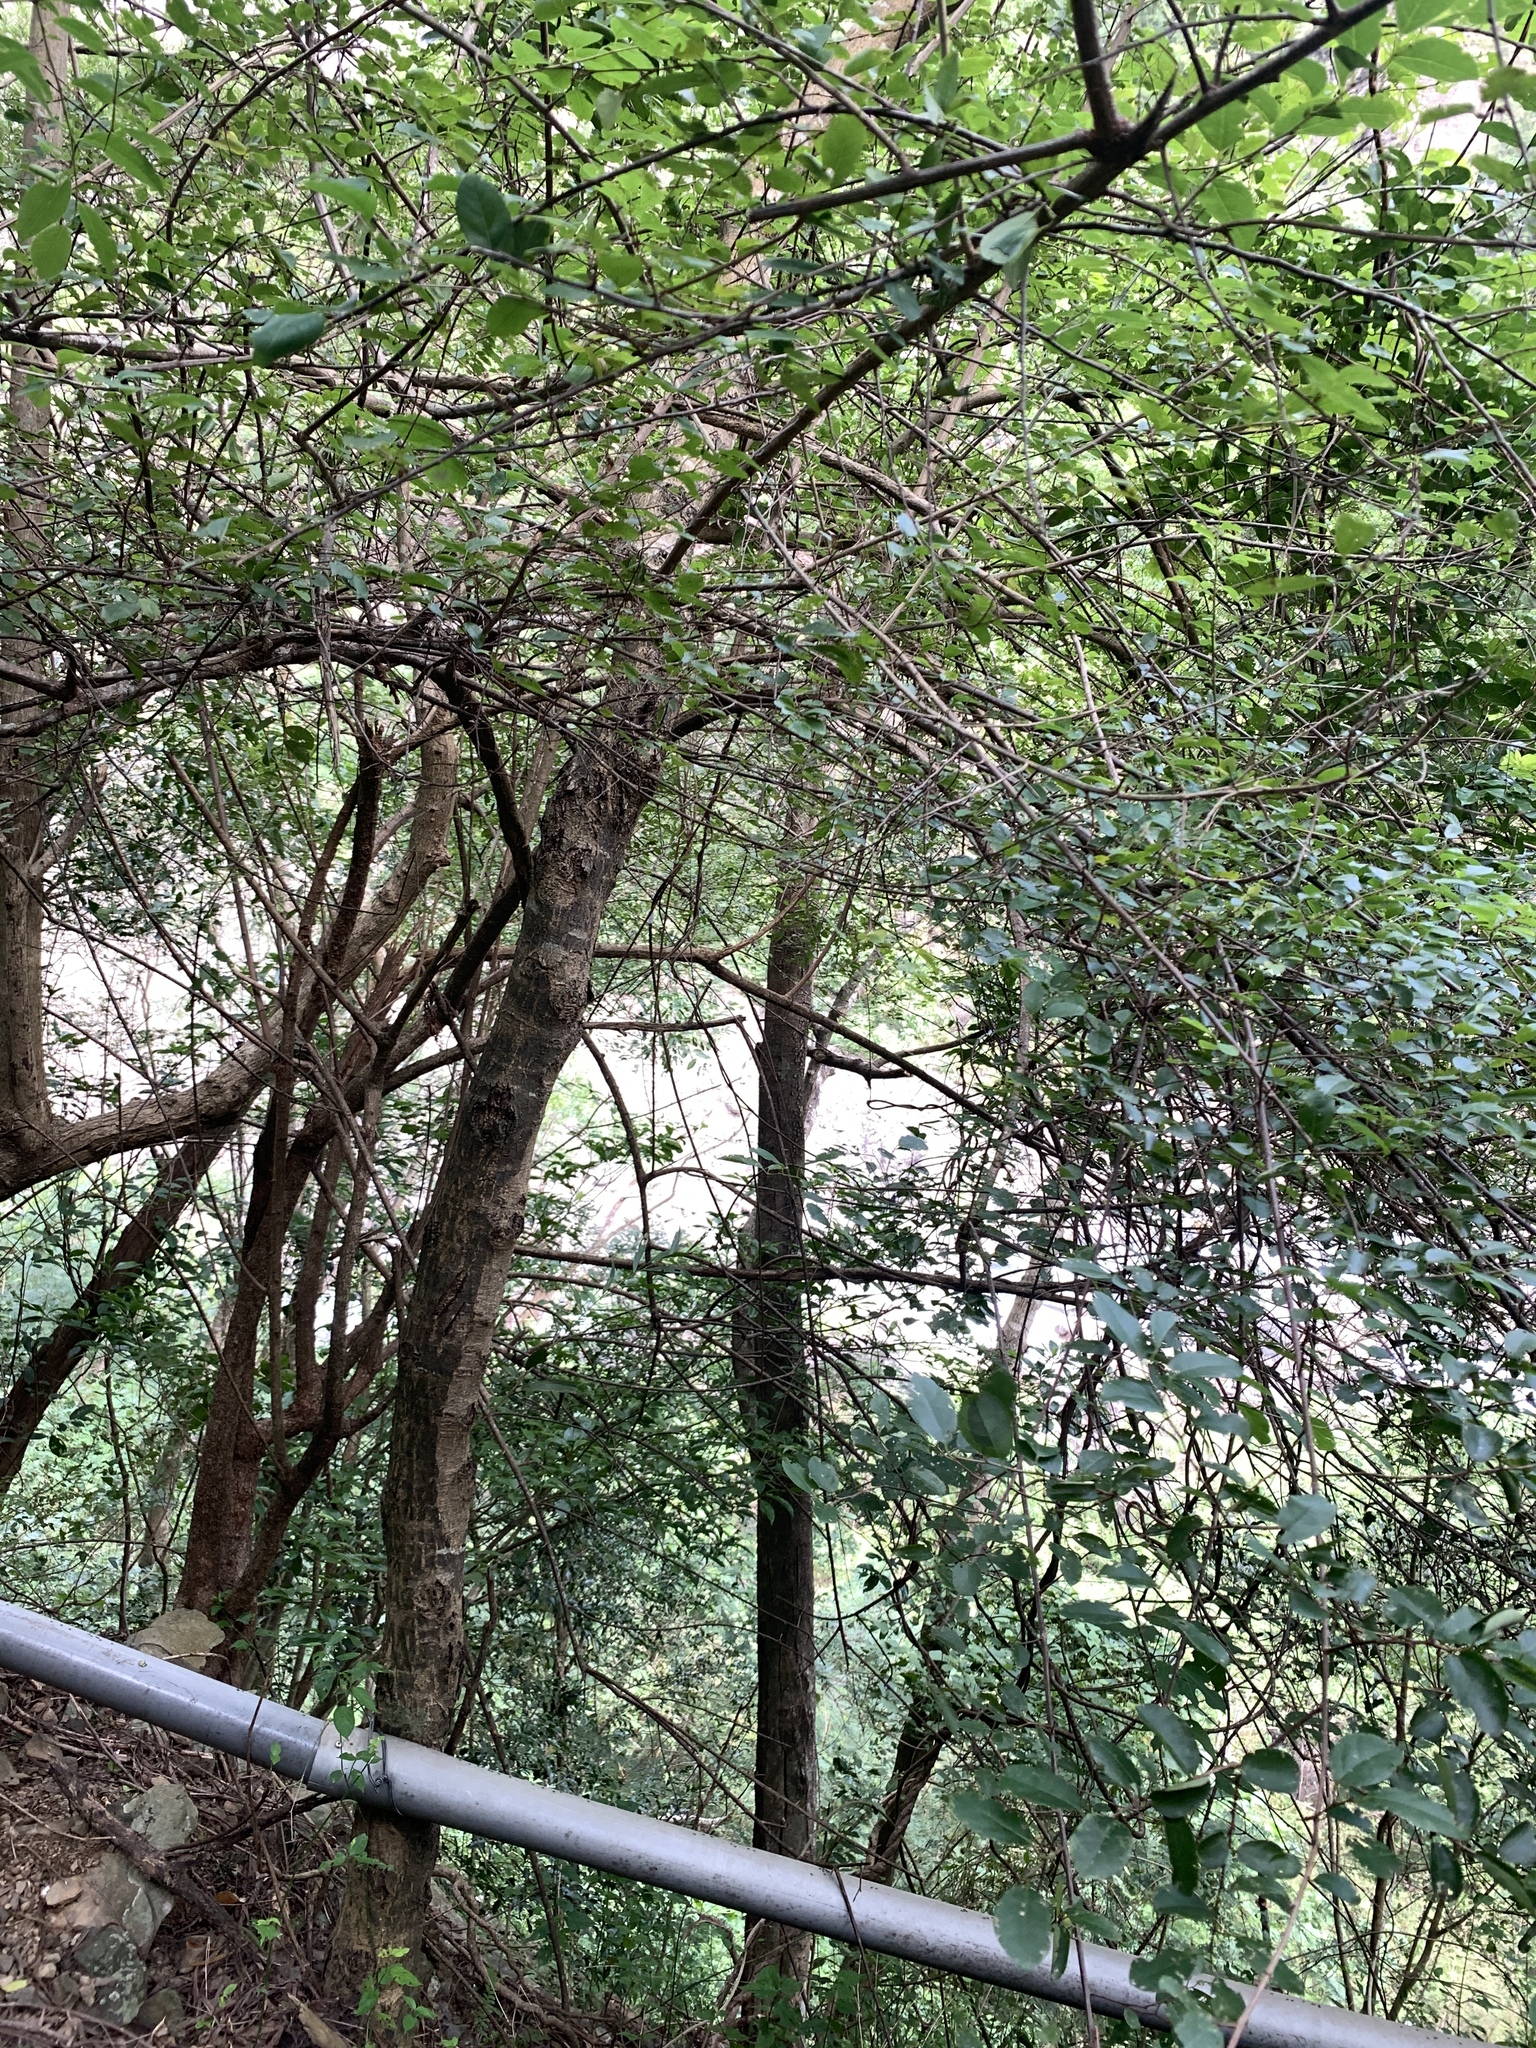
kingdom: Plantae
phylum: Tracheophyta
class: Magnoliopsida
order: Malpighiales
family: Phyllanthaceae
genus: Flueggea
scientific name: Flueggea virosa
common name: Common bushweed
